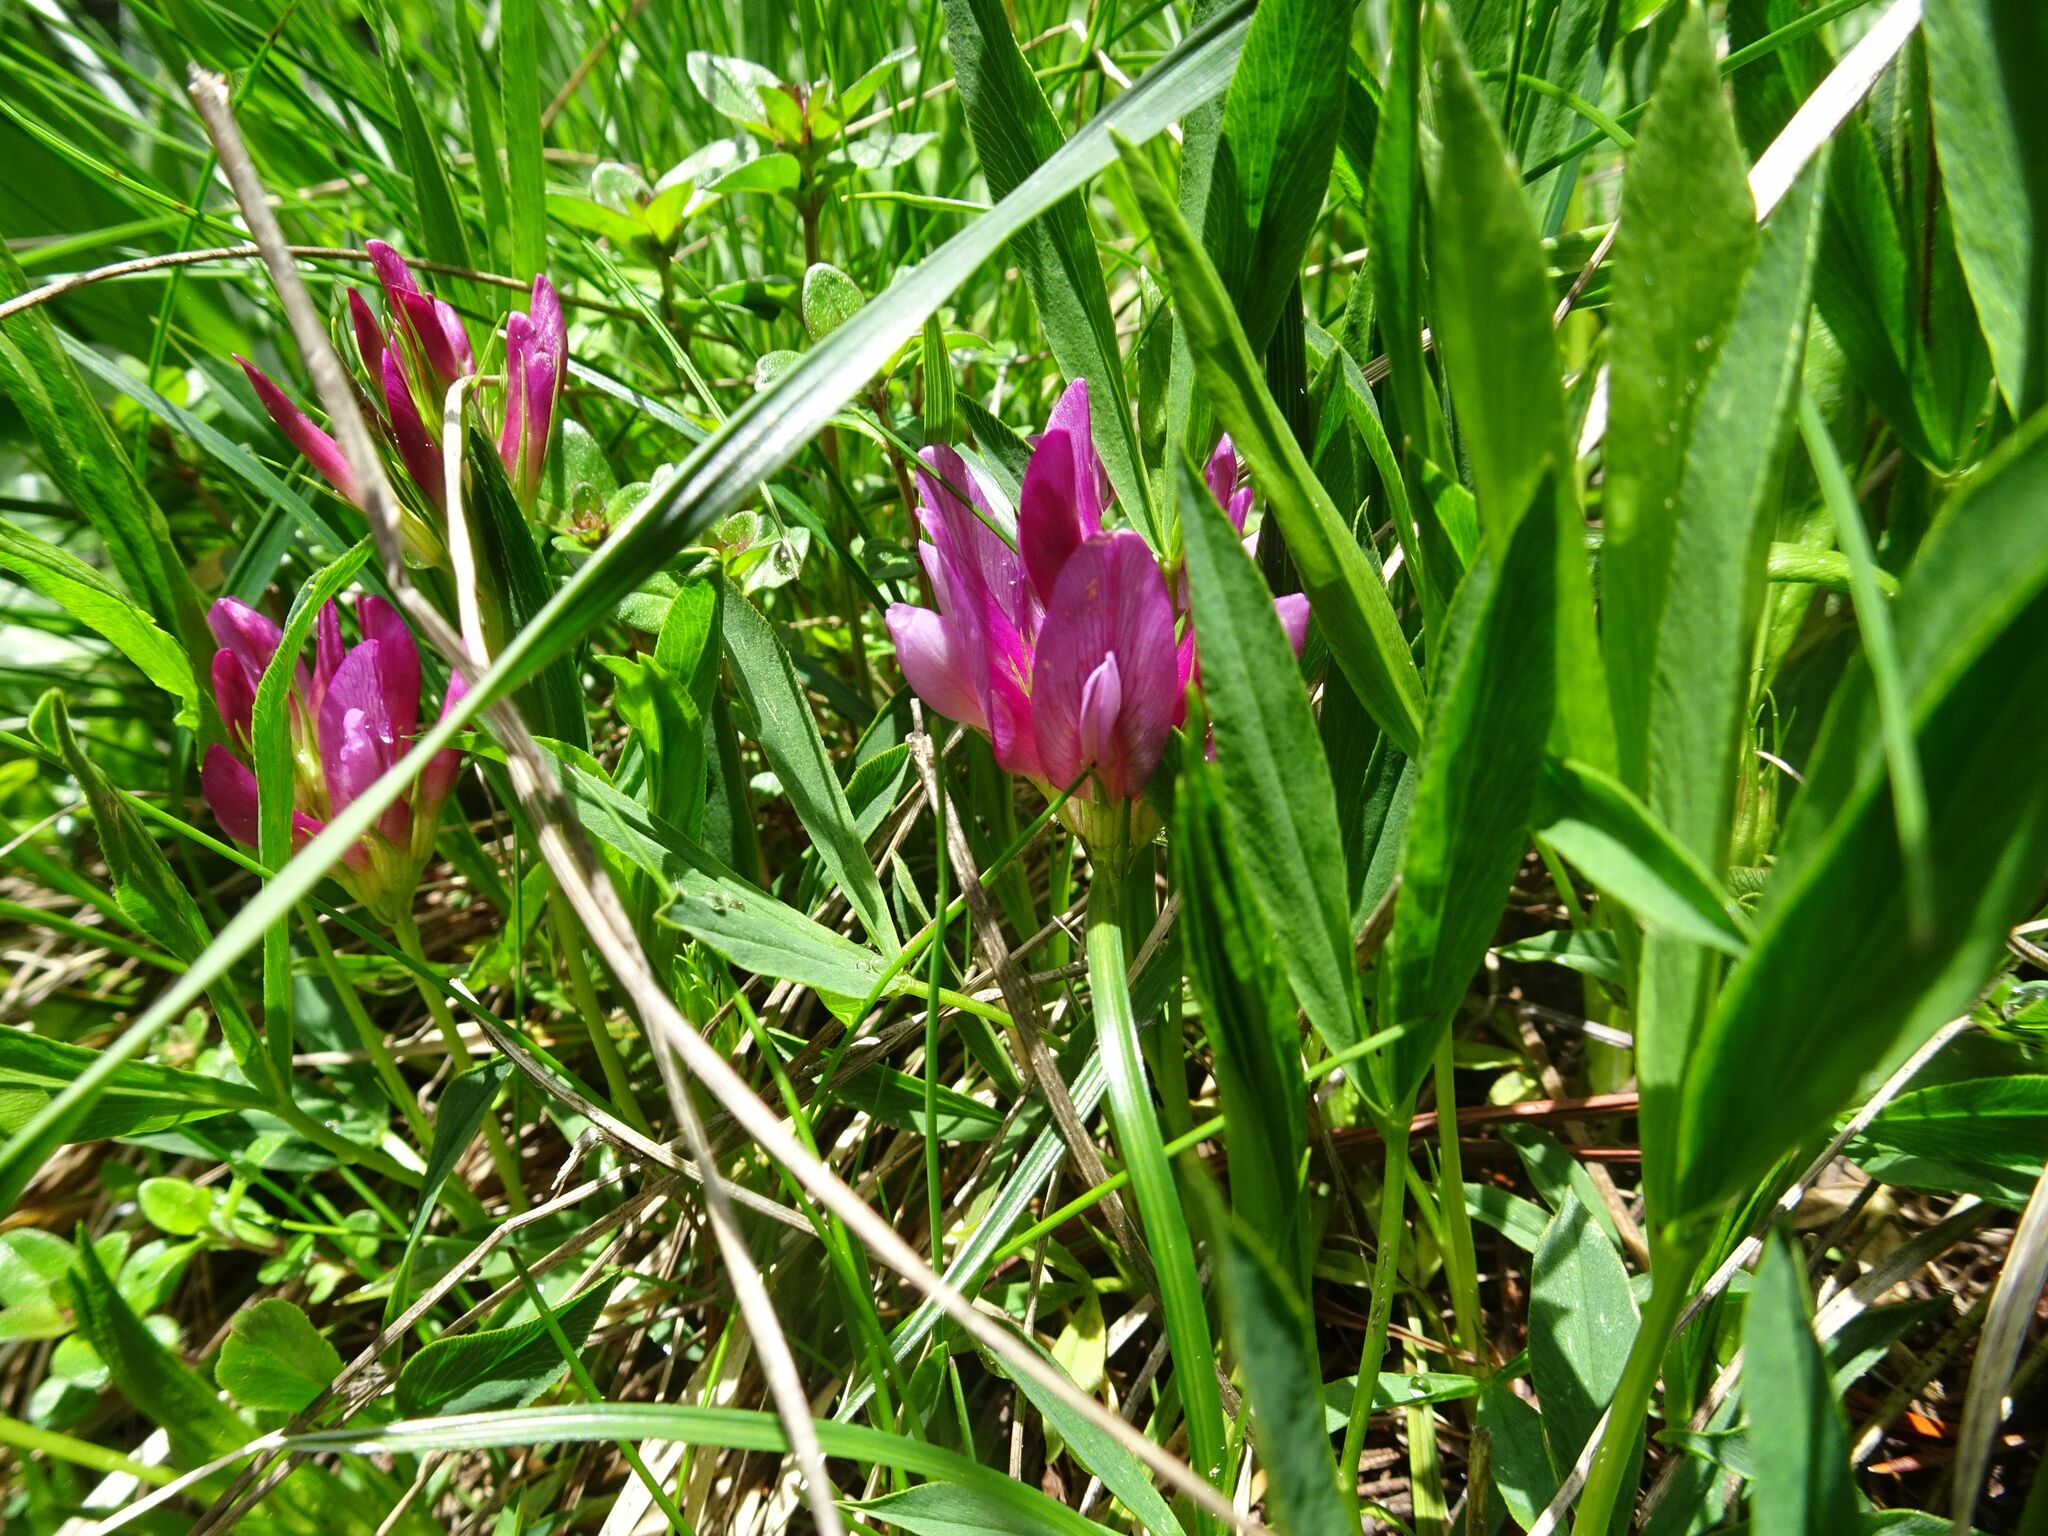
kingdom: Plantae
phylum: Tracheophyta
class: Magnoliopsida
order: Fabales
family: Fabaceae
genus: Trifolium
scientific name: Trifolium alpinum
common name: Alpine clover
